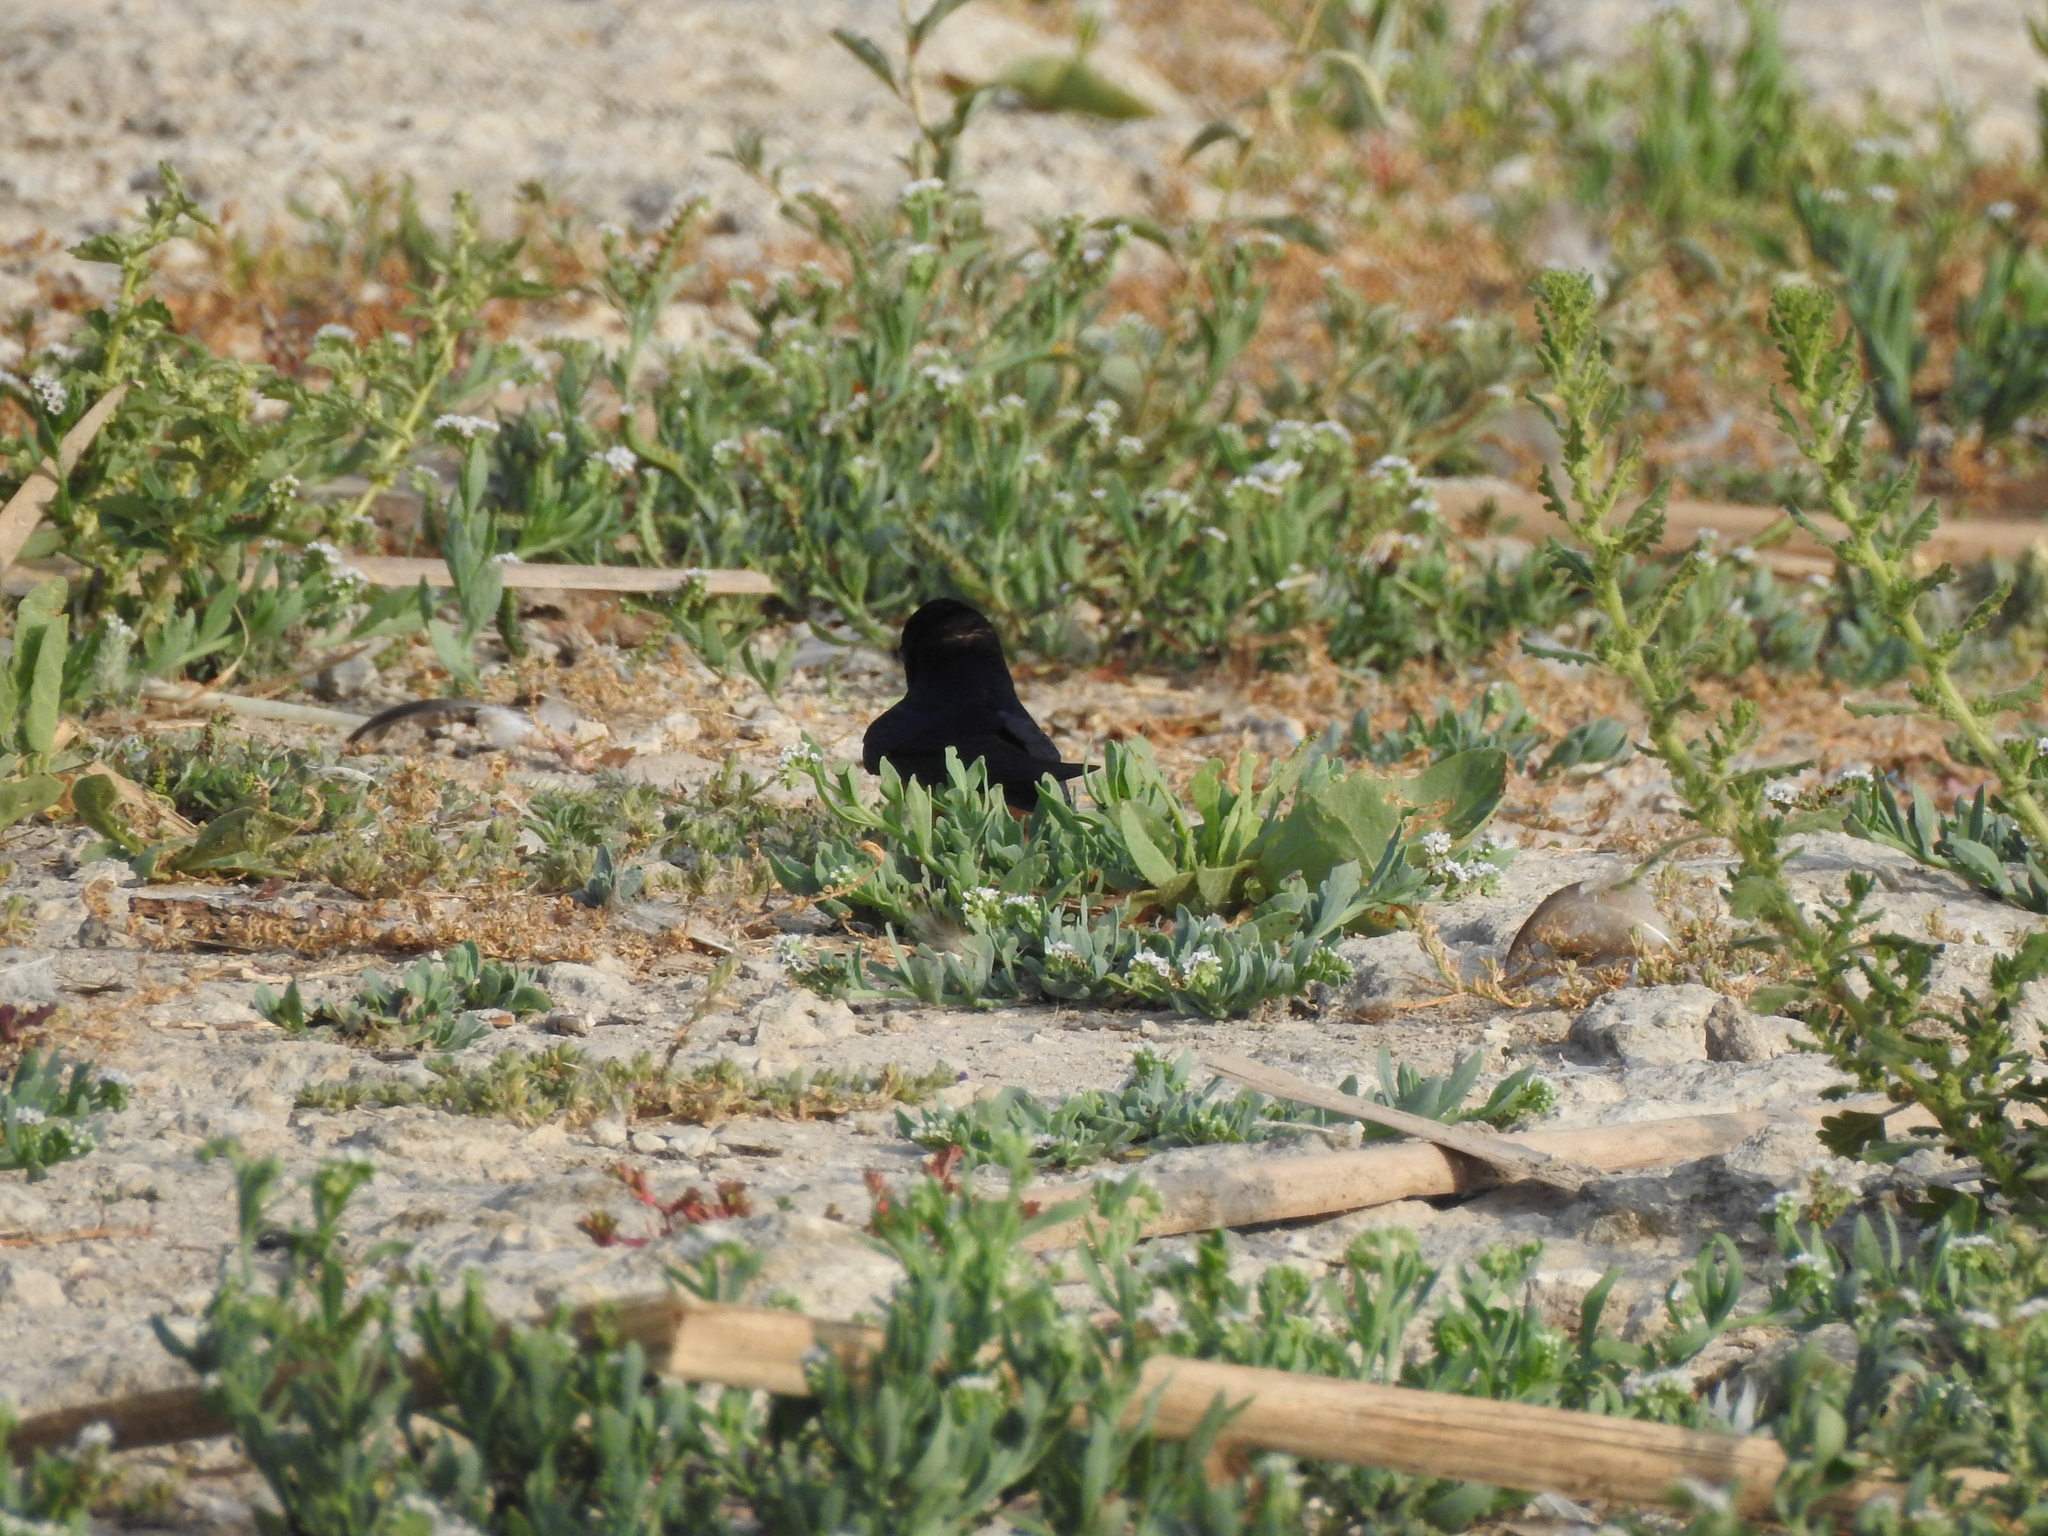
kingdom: Animalia
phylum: Chordata
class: Aves
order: Passeriformes
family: Hirundinidae
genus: Hirundo
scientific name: Hirundo rustica
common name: Barn swallow
